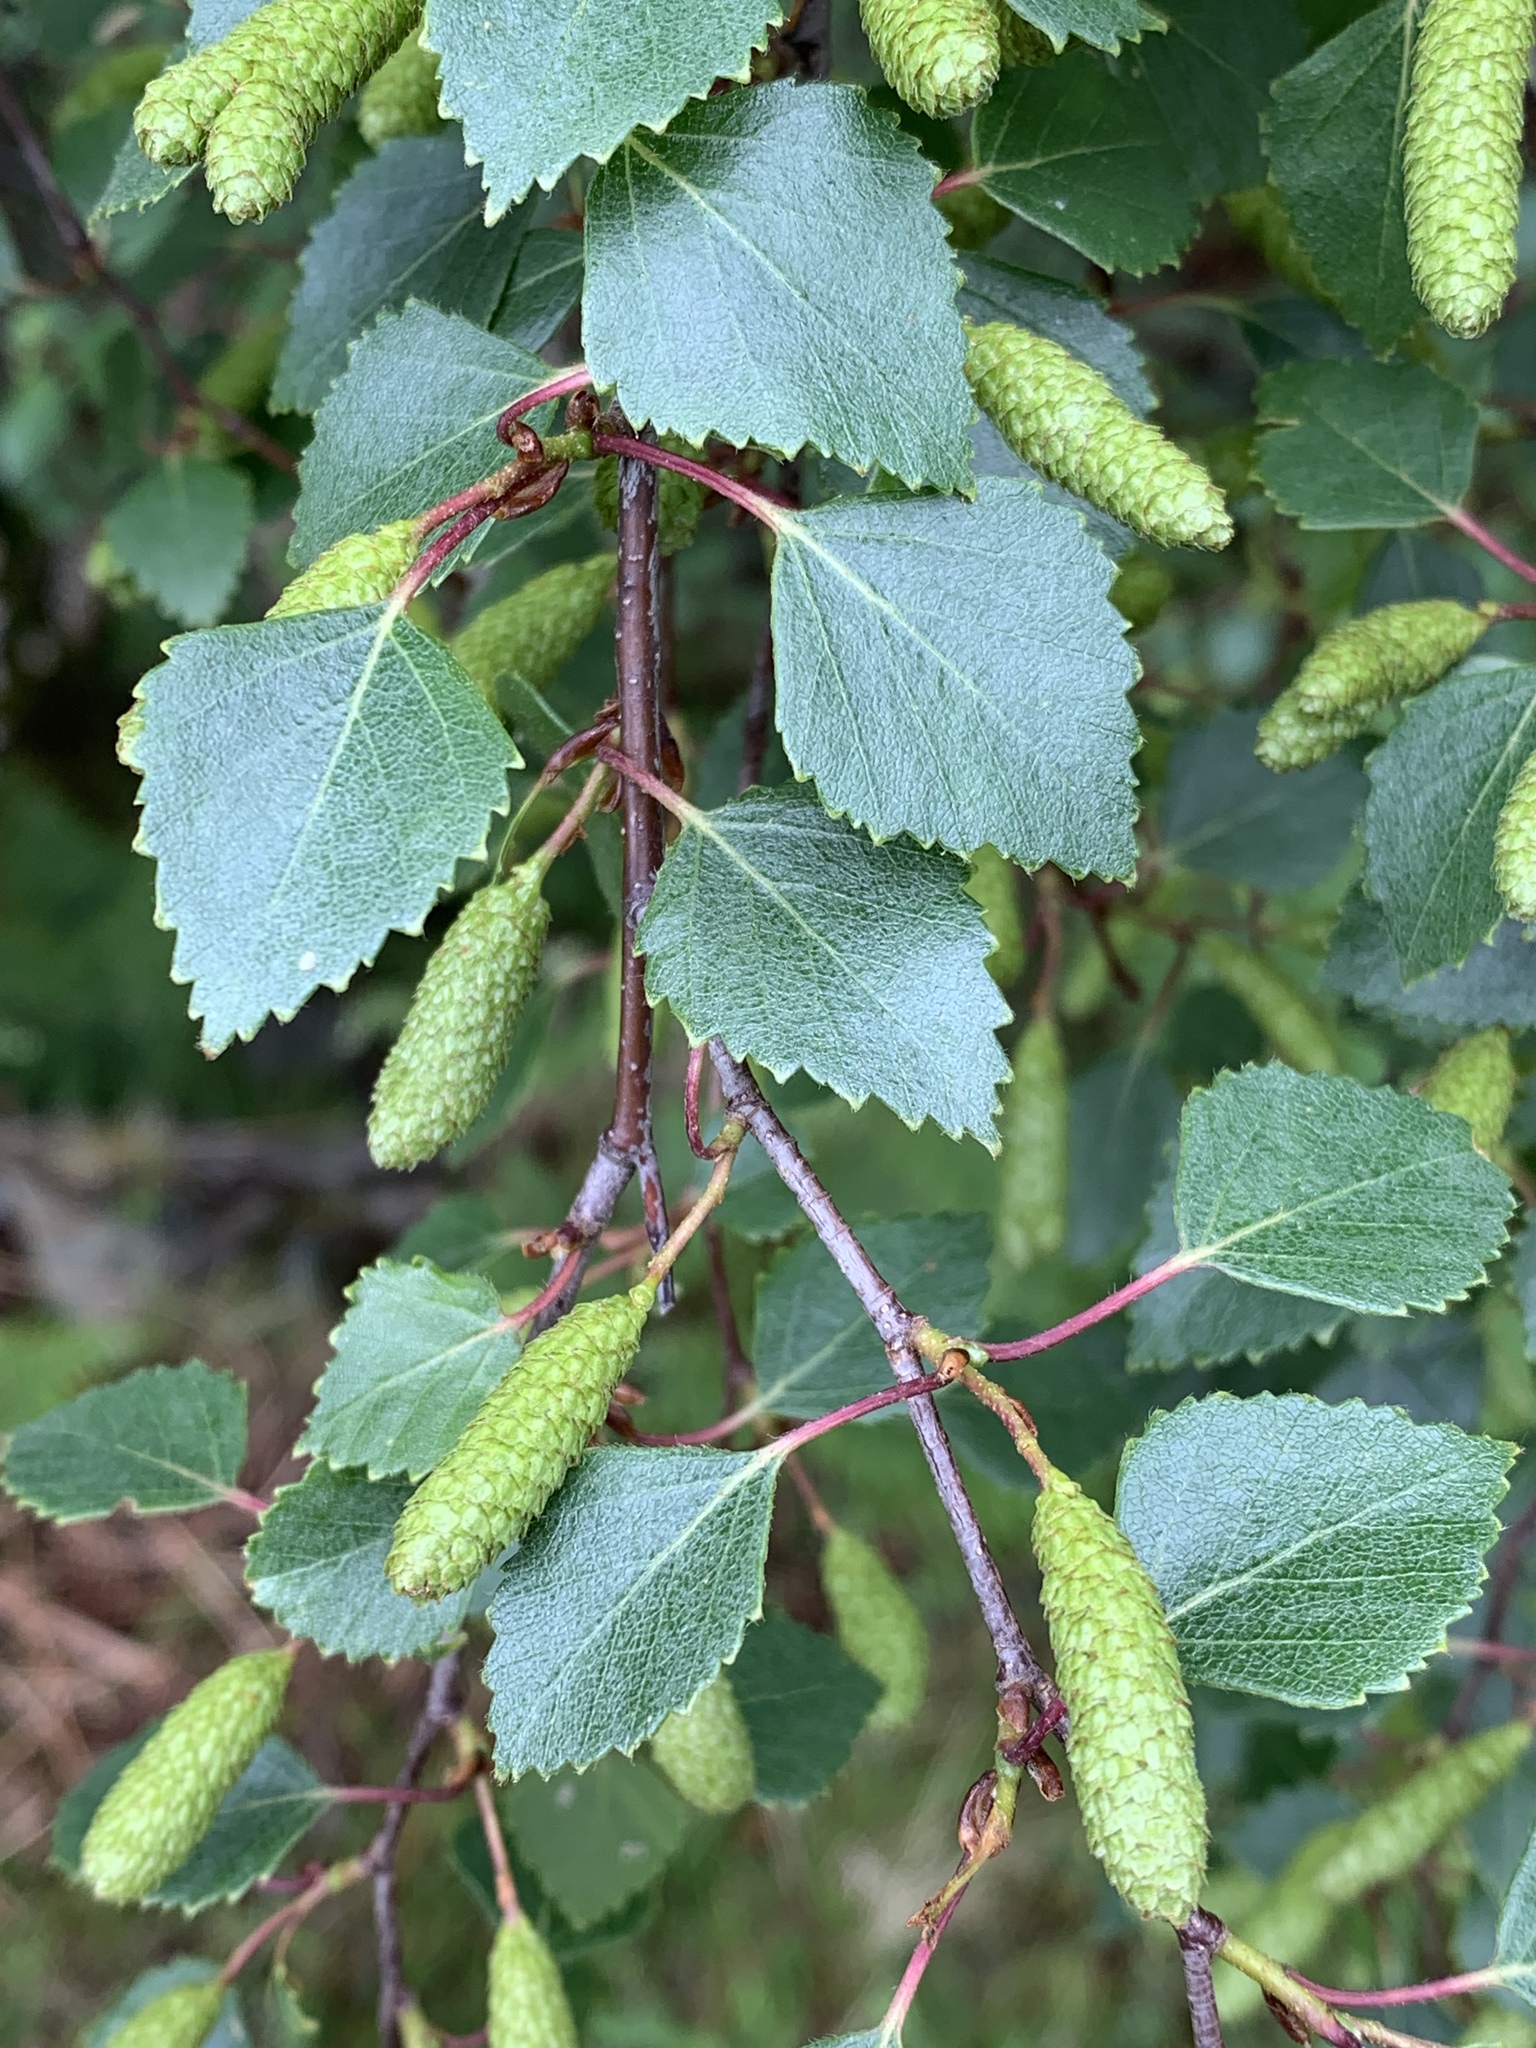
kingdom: Plantae
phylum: Tracheophyta
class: Magnoliopsida
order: Fagales
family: Betulaceae
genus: Betula
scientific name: Betula pendula
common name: Silver birch
